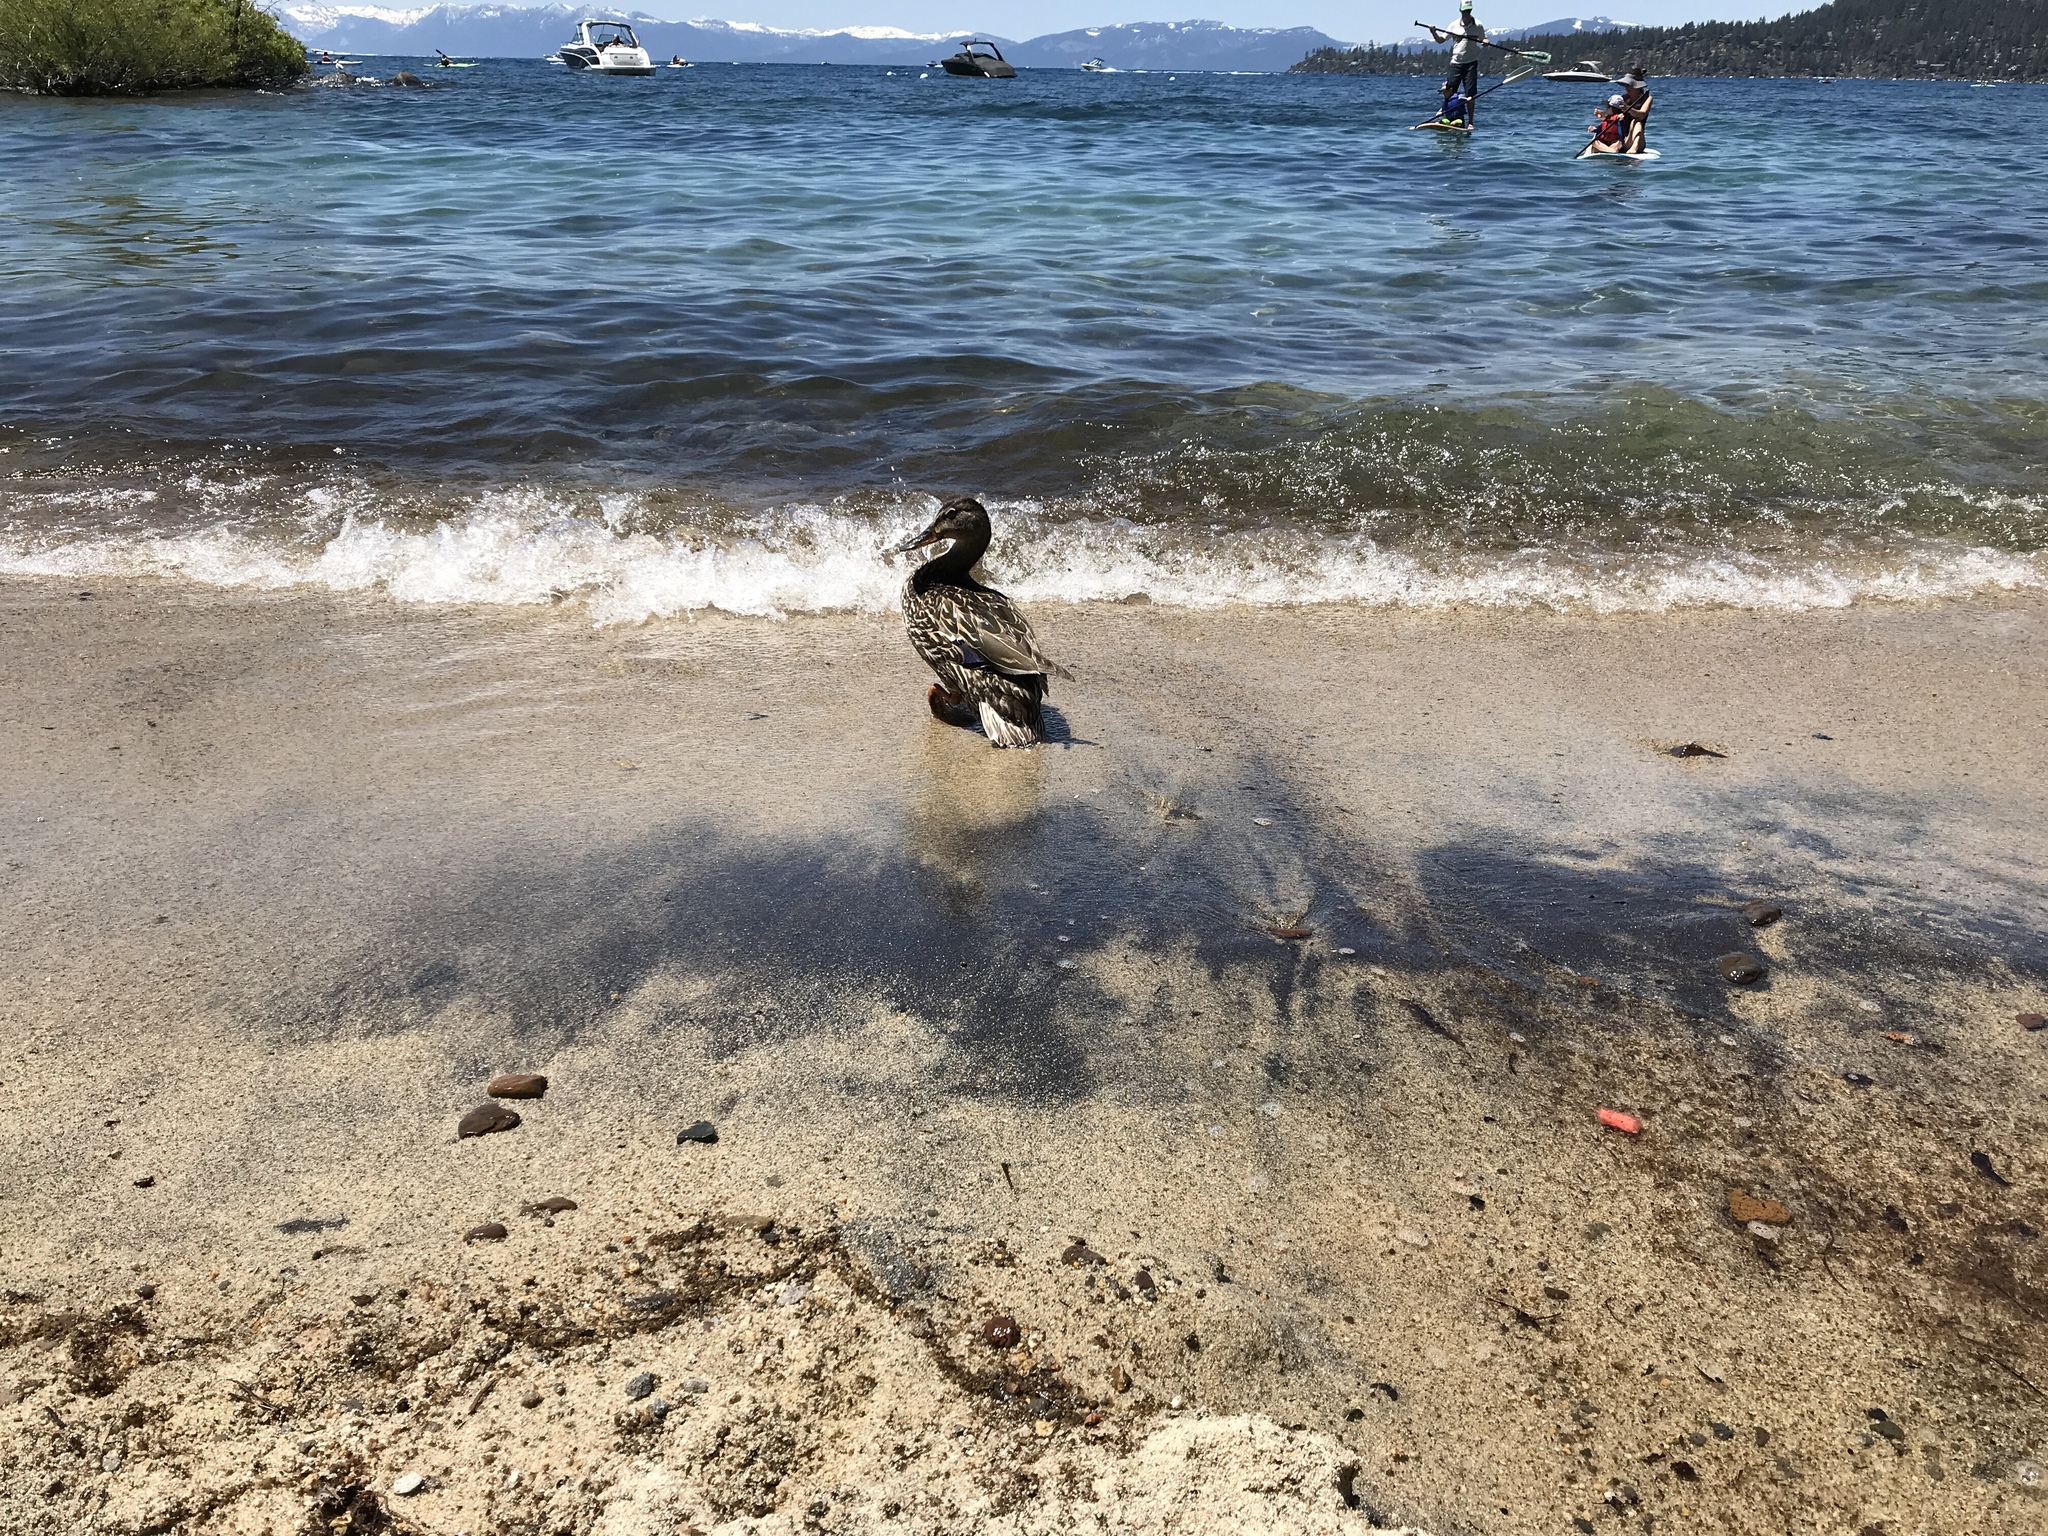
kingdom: Animalia
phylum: Chordata
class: Aves
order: Anseriformes
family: Anatidae
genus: Anas
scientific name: Anas platyrhynchos
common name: Mallard
